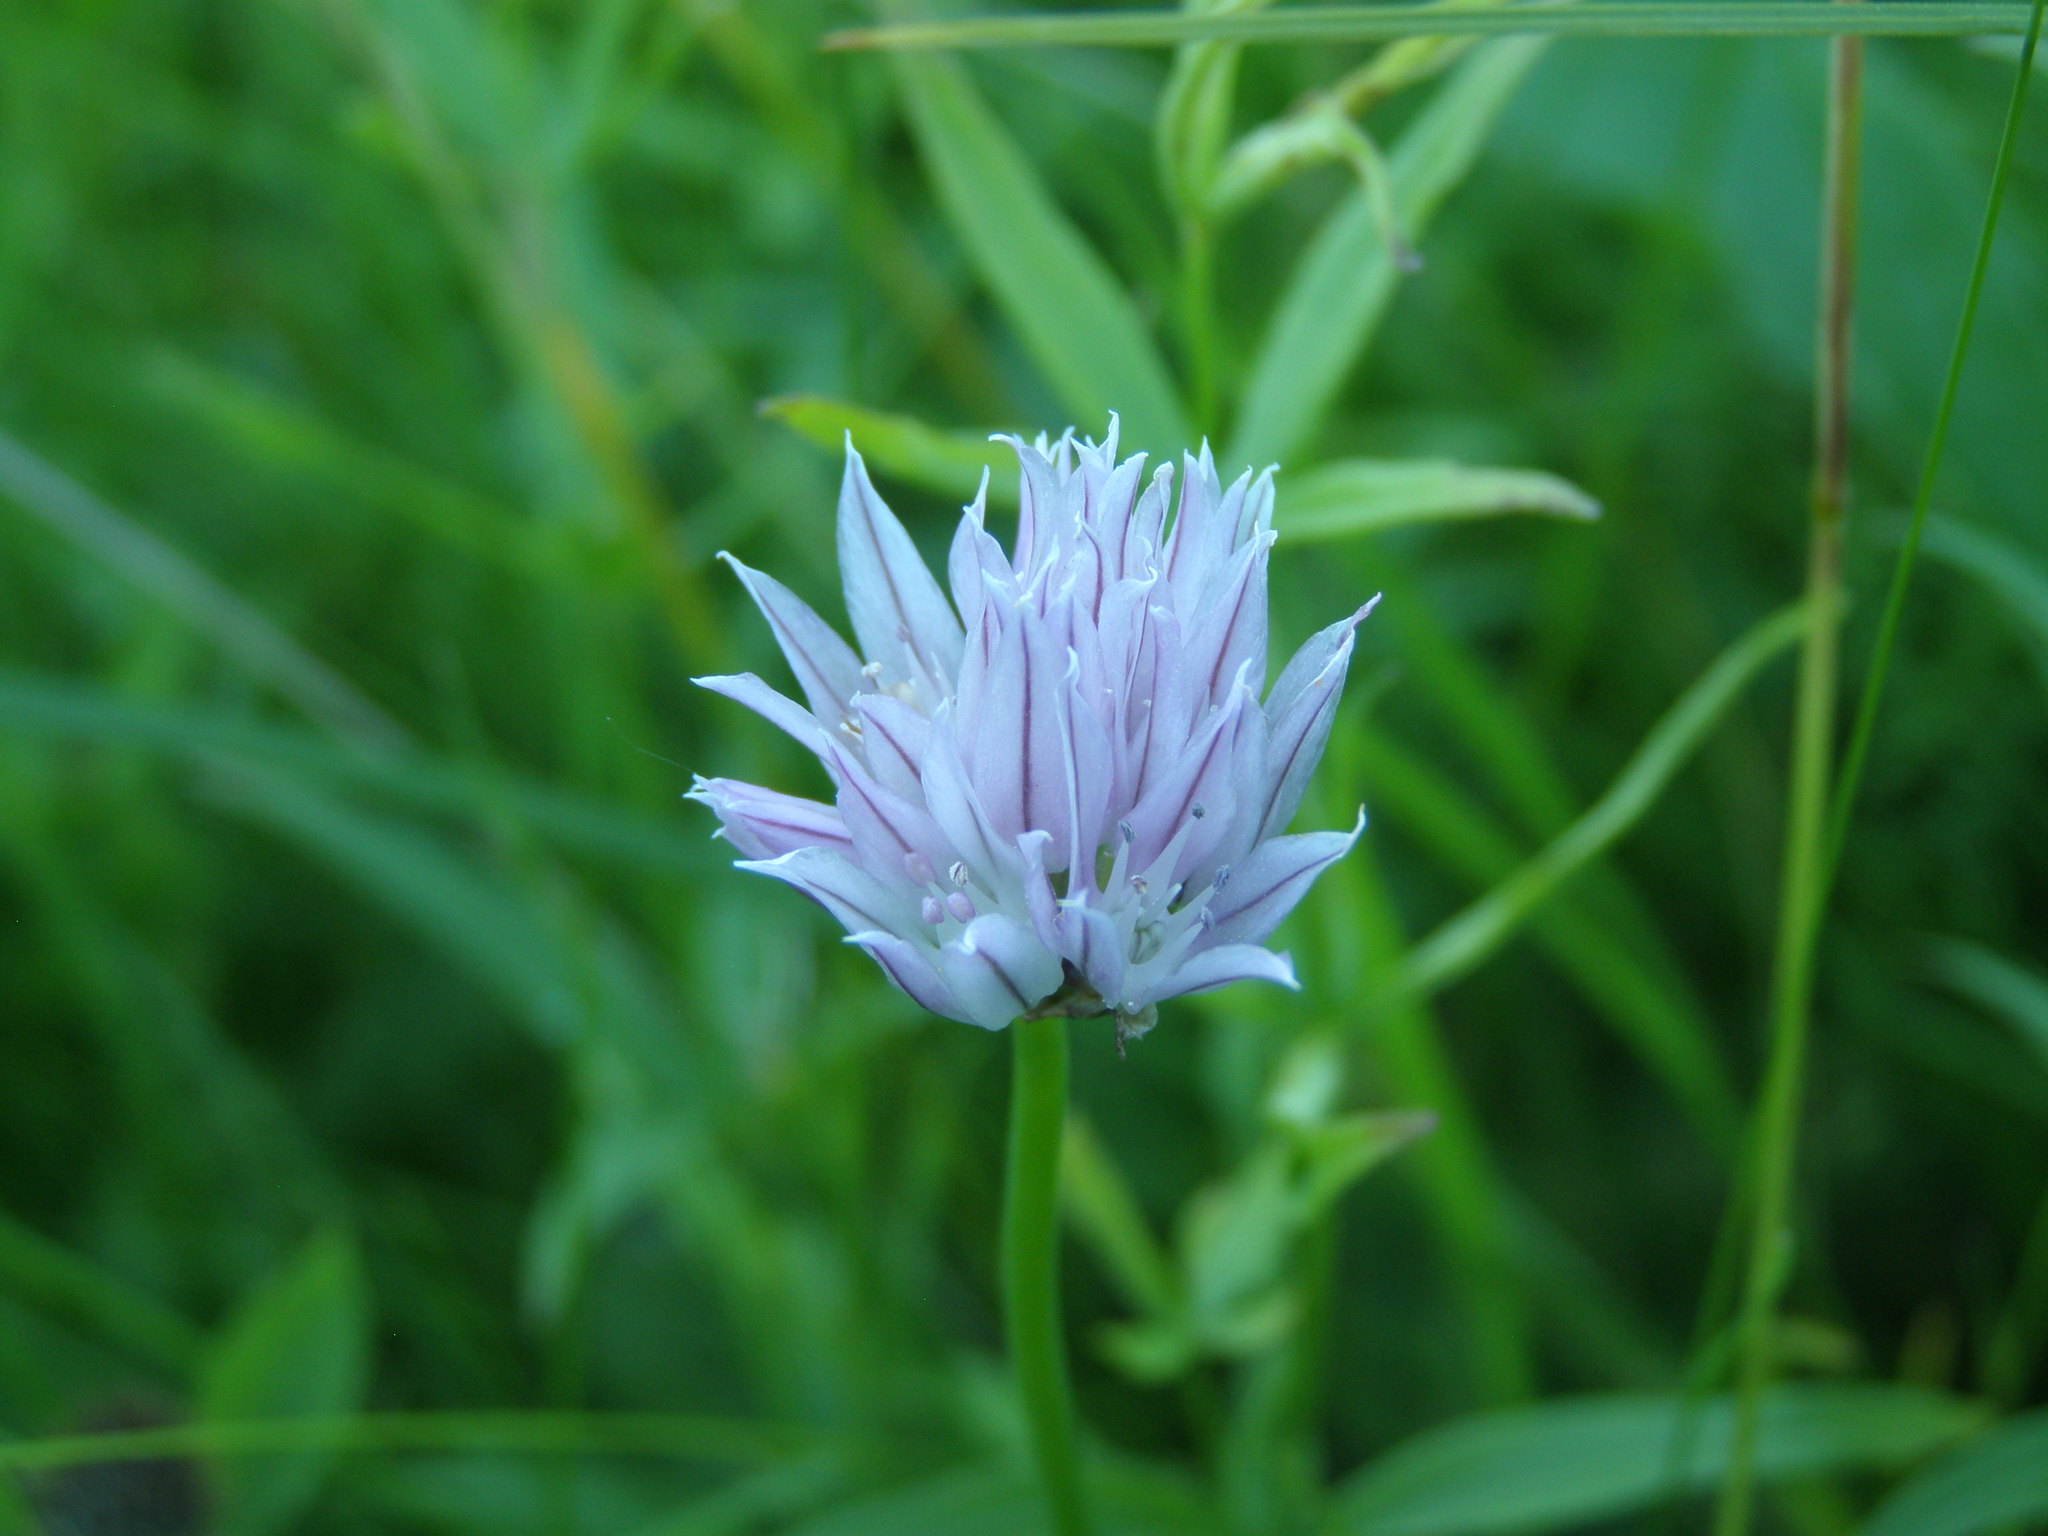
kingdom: Plantae
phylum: Tracheophyta
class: Liliopsida
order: Asparagales
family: Amaryllidaceae
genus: Allium
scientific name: Allium schoenoprasum
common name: Chives
